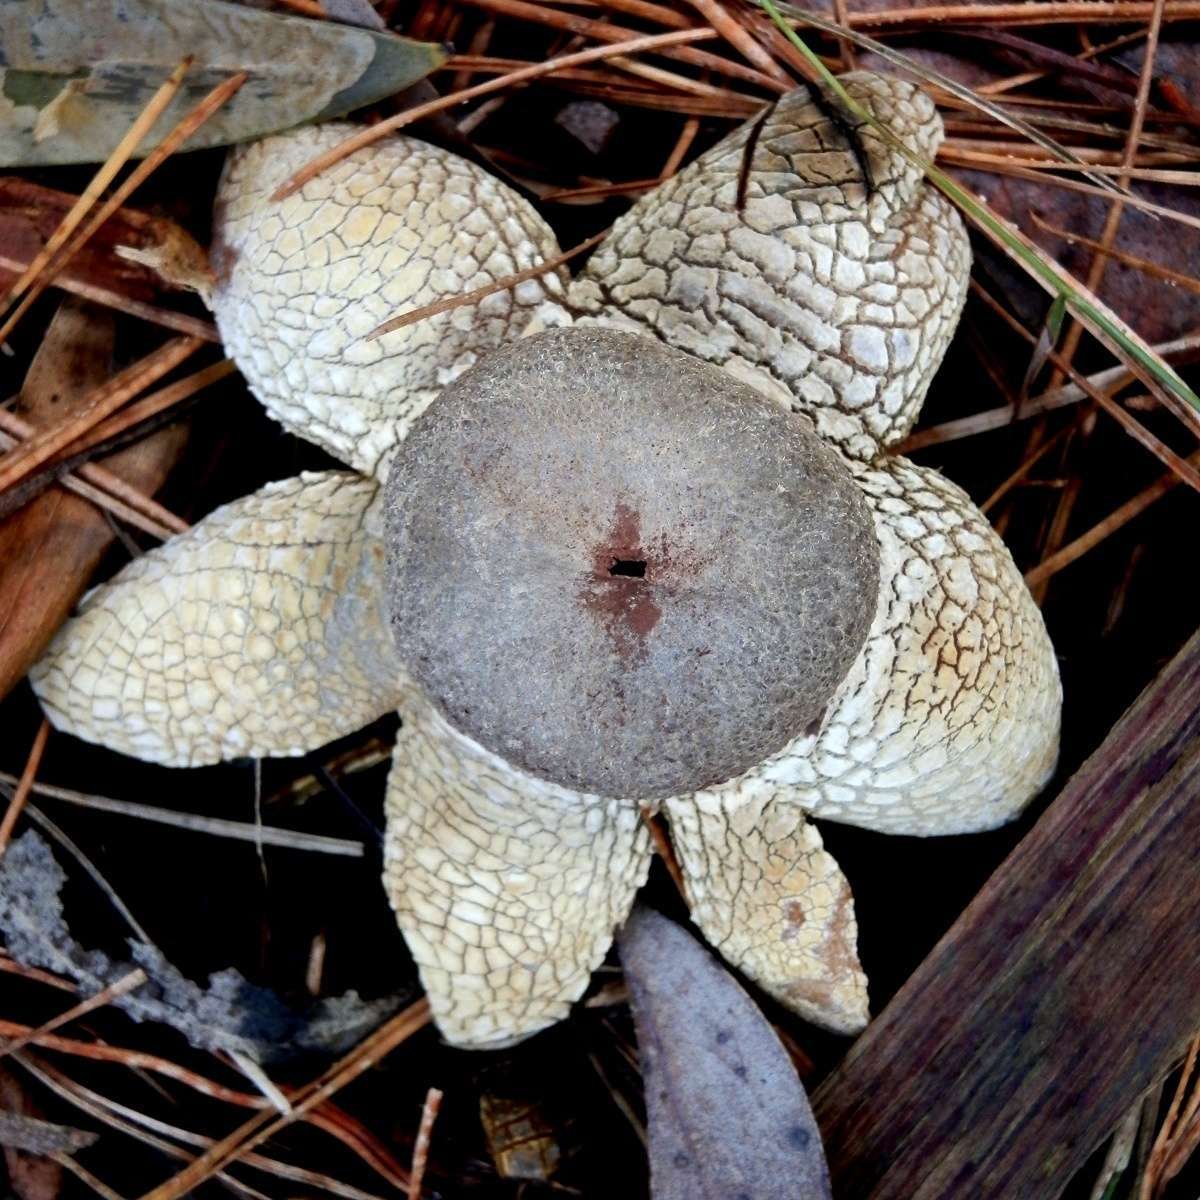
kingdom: Fungi
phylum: Basidiomycota
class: Agaricomycetes
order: Boletales
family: Diplocystidiaceae
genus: Astraeus
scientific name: Astraeus hygrometricus
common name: Barometer earthstar
